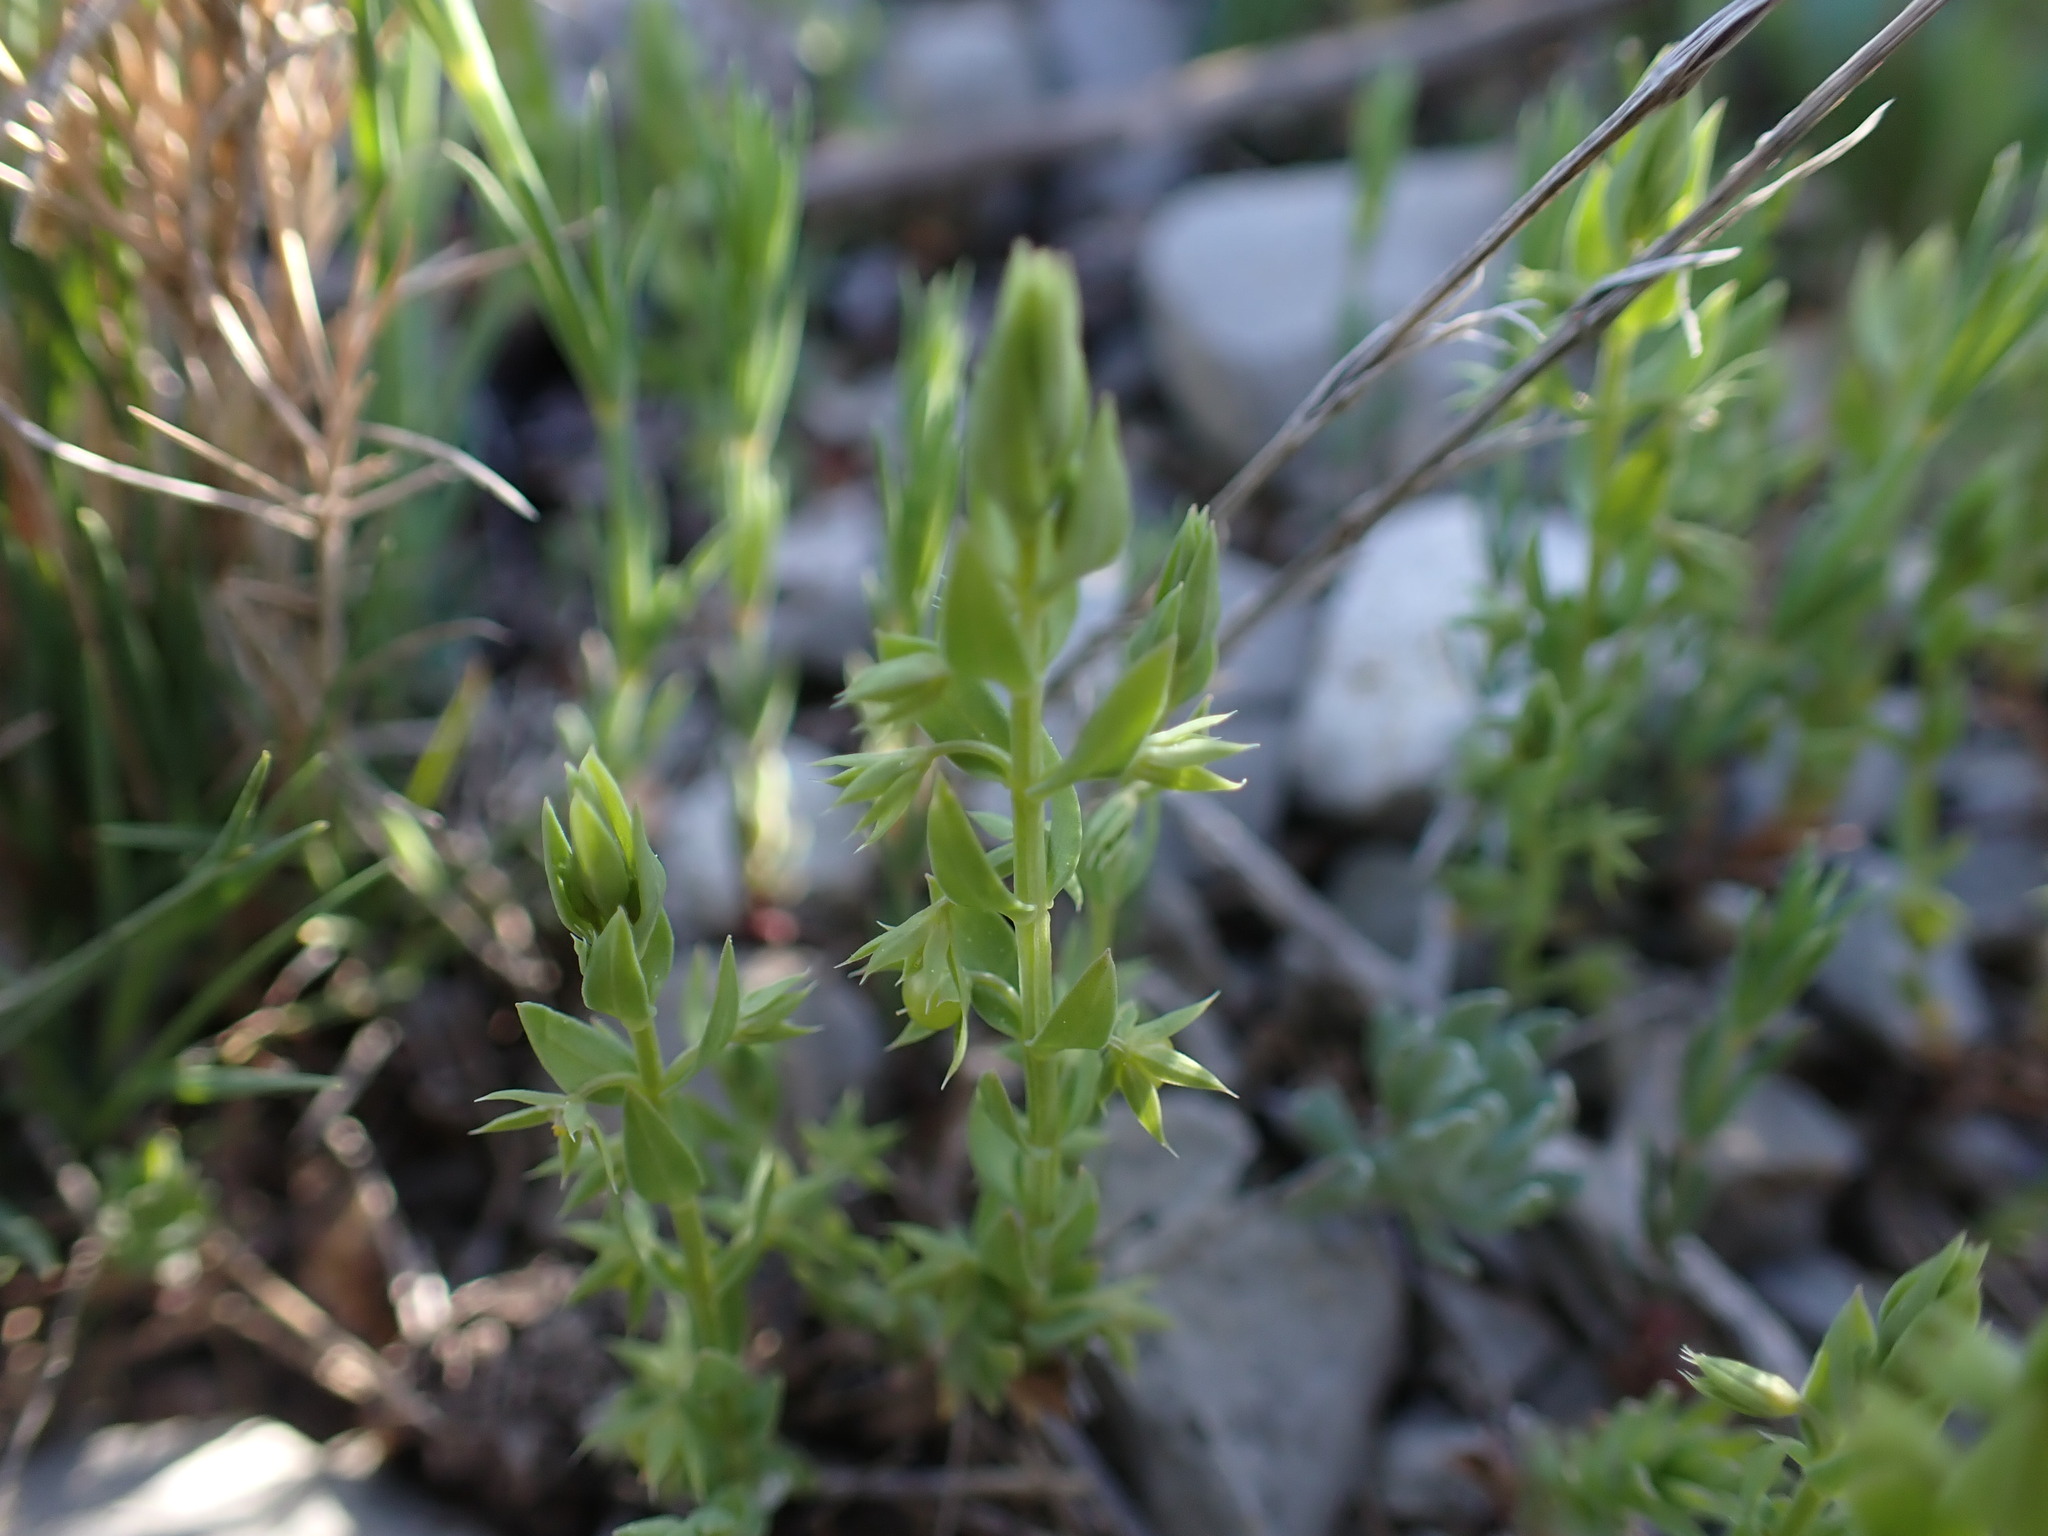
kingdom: Plantae
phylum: Tracheophyta
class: Magnoliopsida
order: Ericales
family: Primulaceae
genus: Lysimachia
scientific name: Lysimachia linum-stellatum
